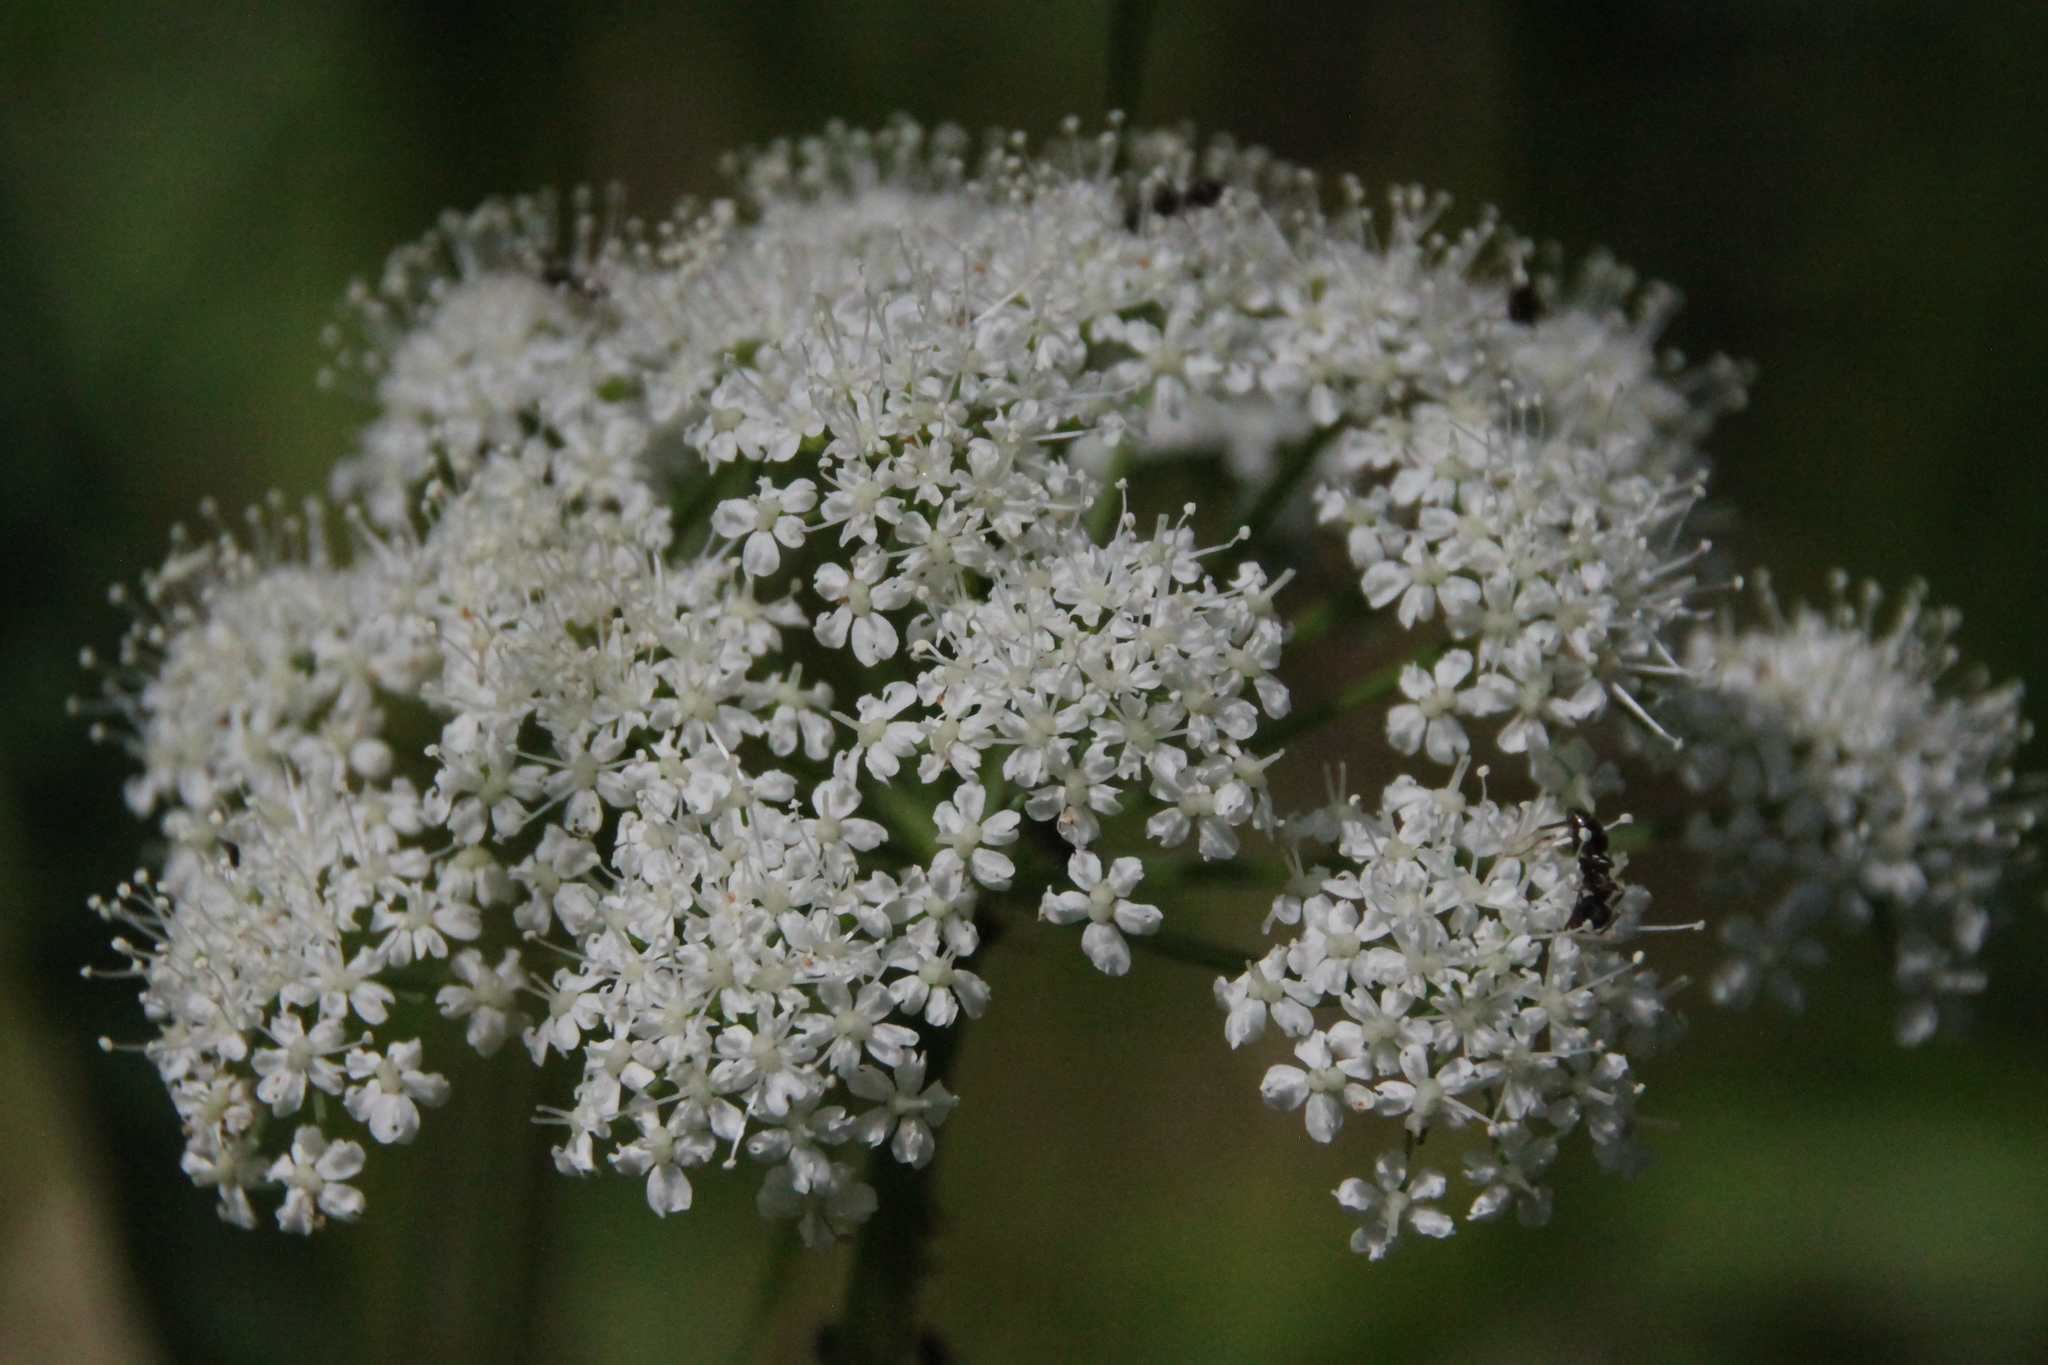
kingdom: Plantae
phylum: Tracheophyta
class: Magnoliopsida
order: Apiales
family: Apiaceae
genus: Aegopodium
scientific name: Aegopodium podagraria
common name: Ground-elder
